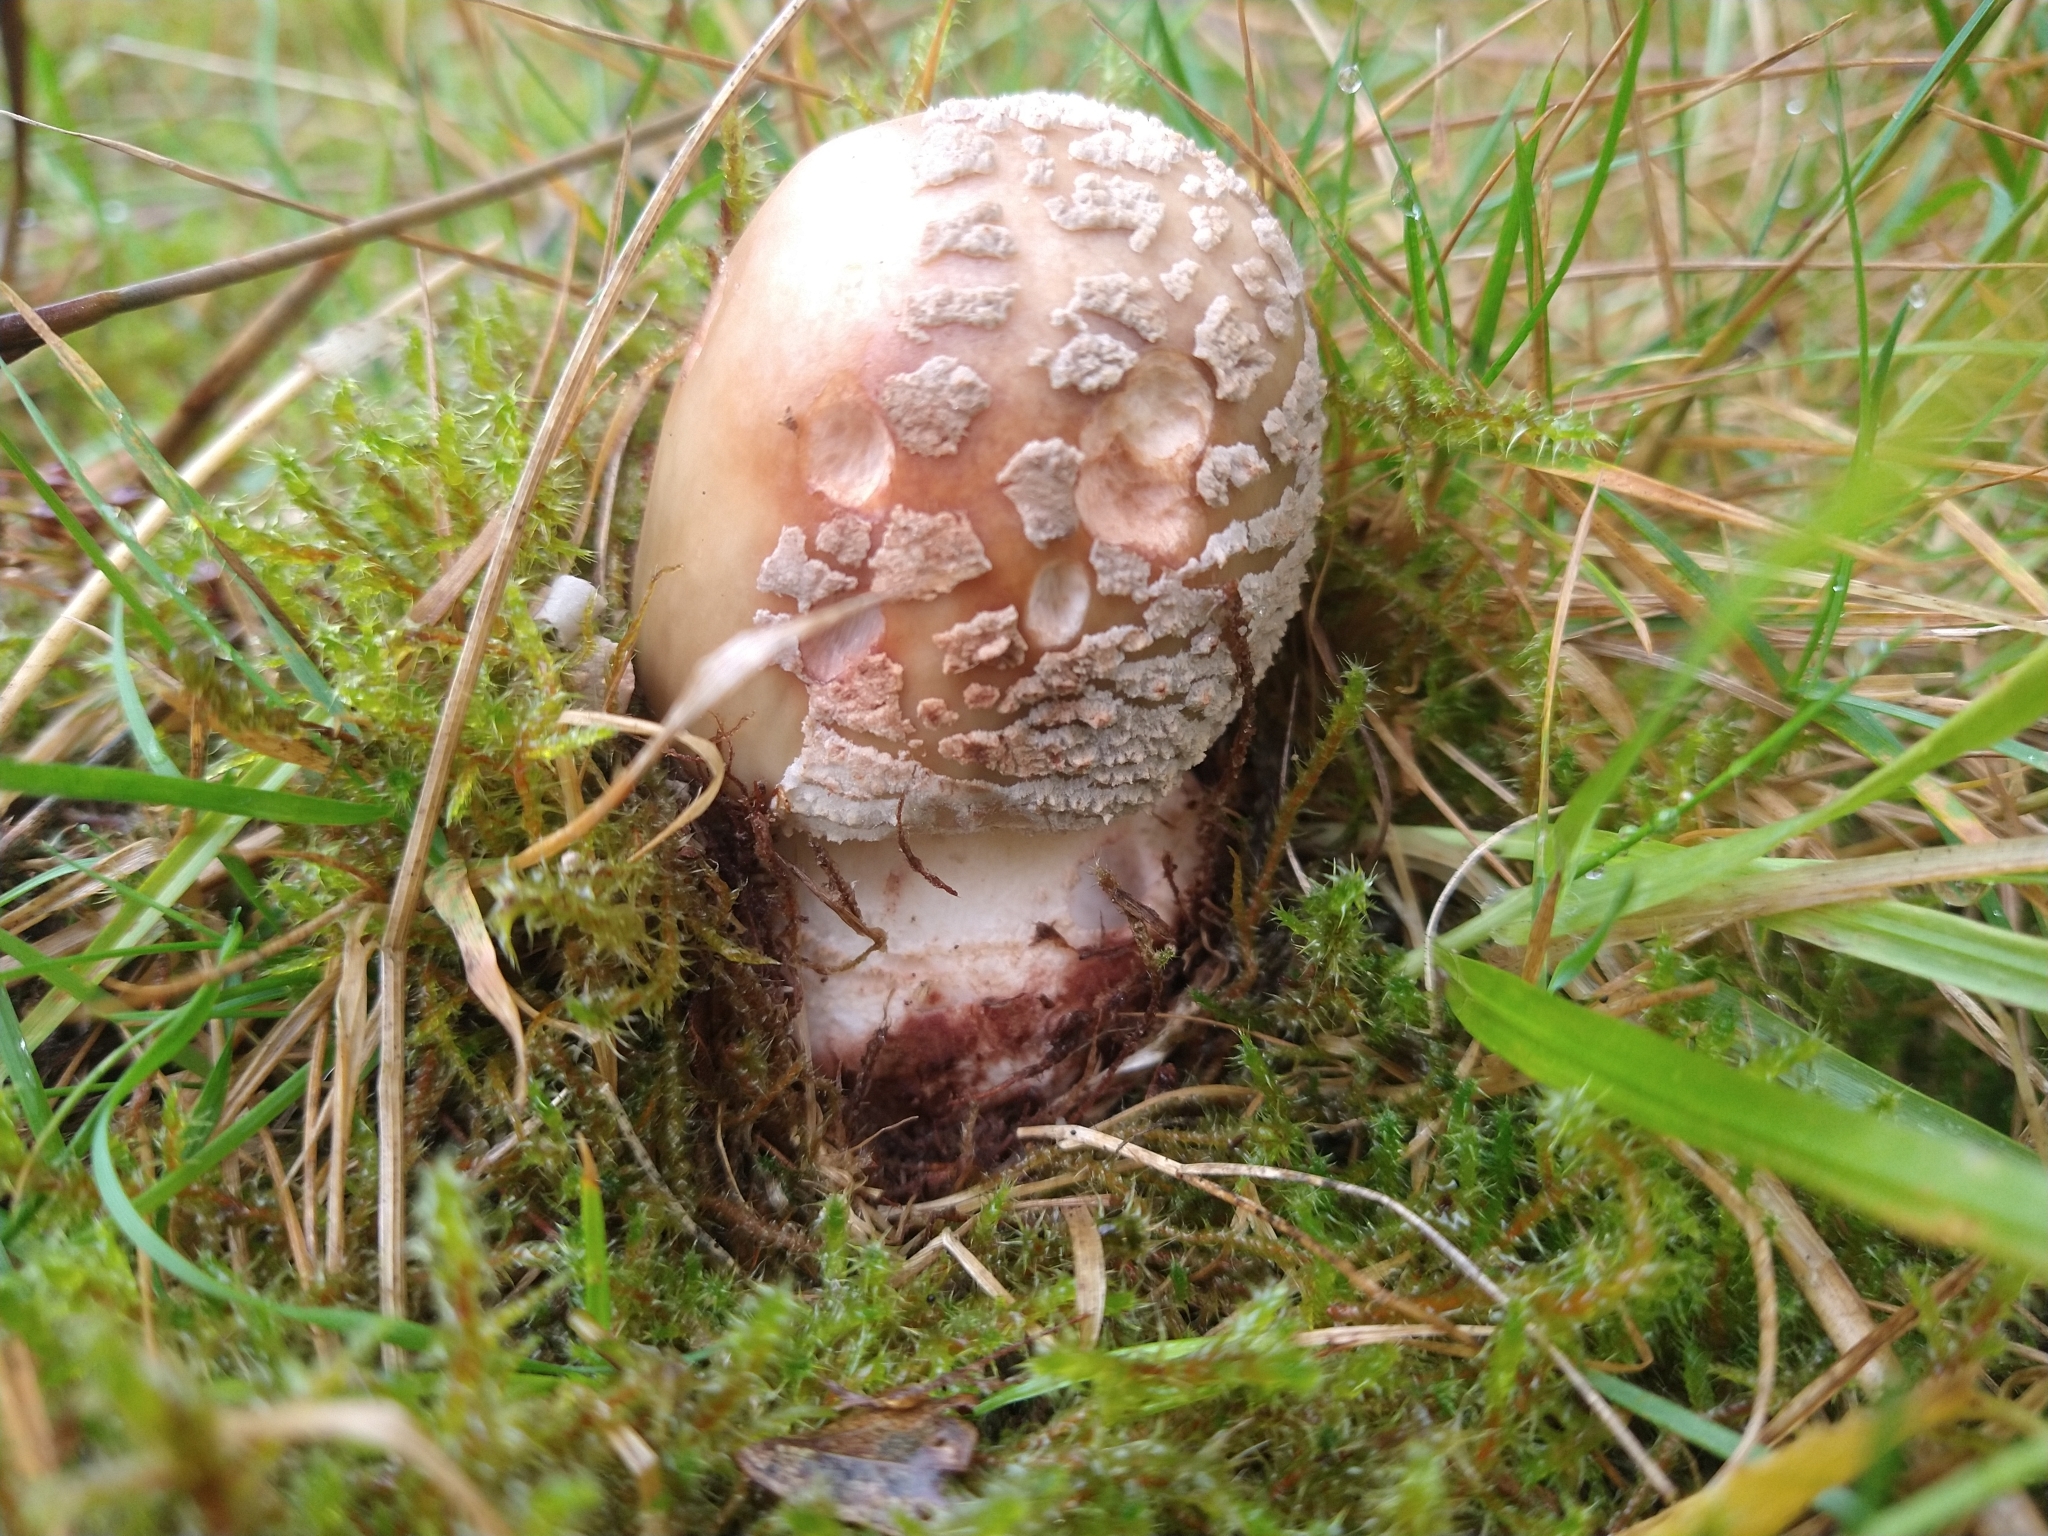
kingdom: Fungi
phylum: Basidiomycota
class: Agaricomycetes
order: Agaricales
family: Amanitaceae
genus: Amanita
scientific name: Amanita rubescens
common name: Blusher
